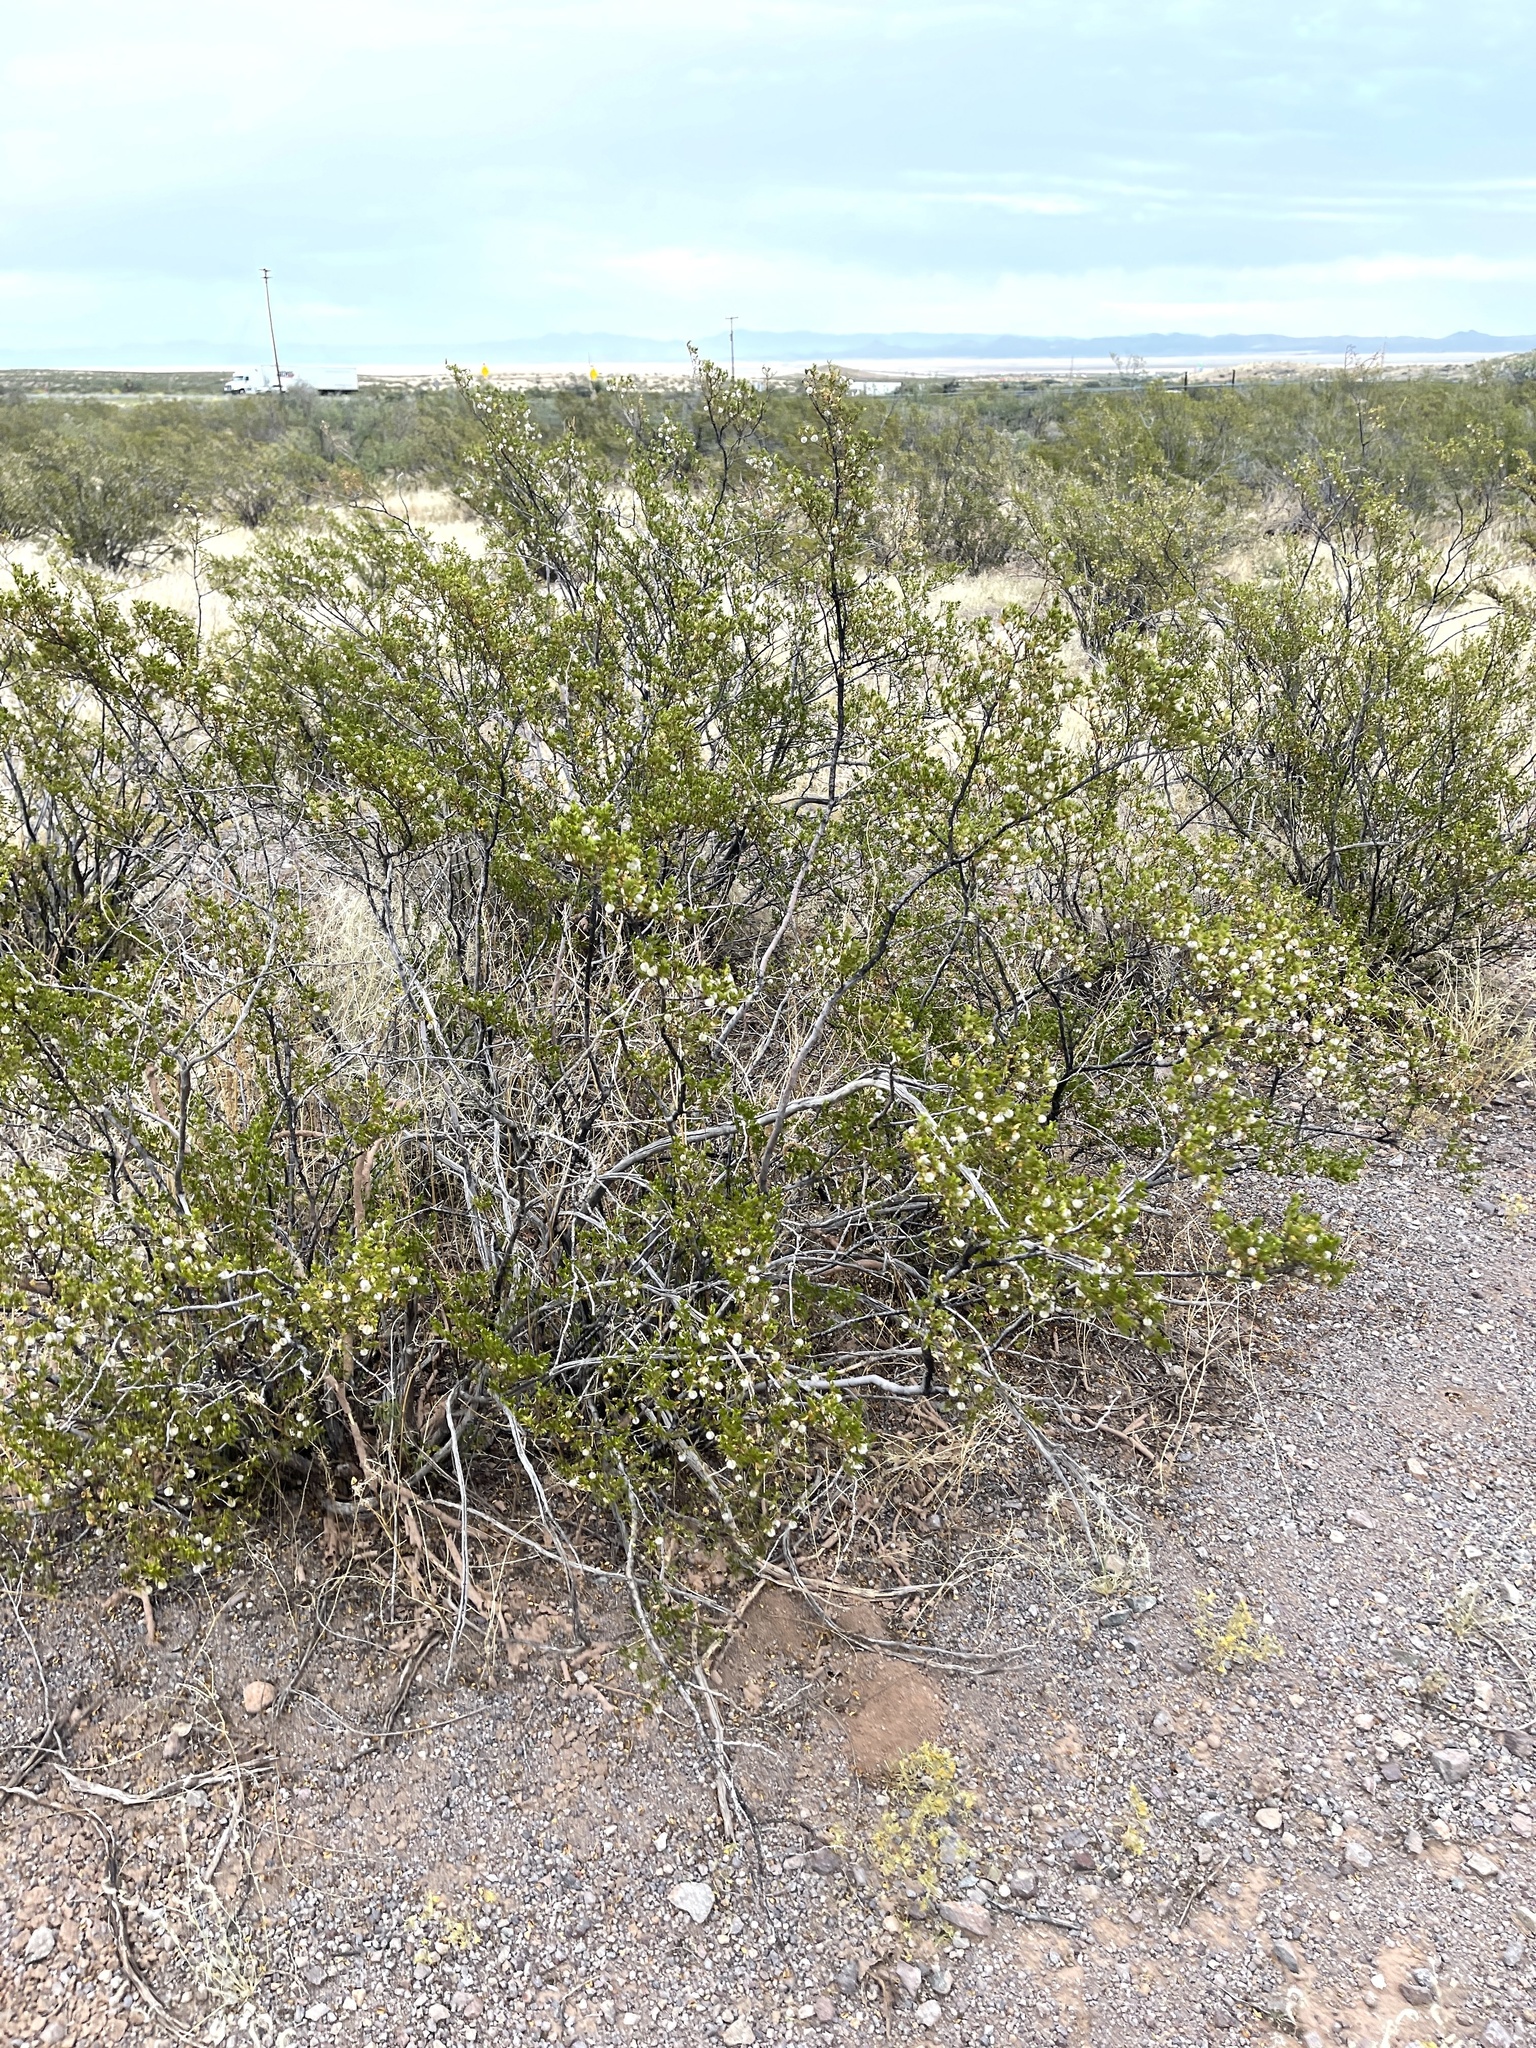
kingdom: Plantae
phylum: Tracheophyta
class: Magnoliopsida
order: Zygophyllales
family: Zygophyllaceae
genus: Larrea
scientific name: Larrea tridentata
